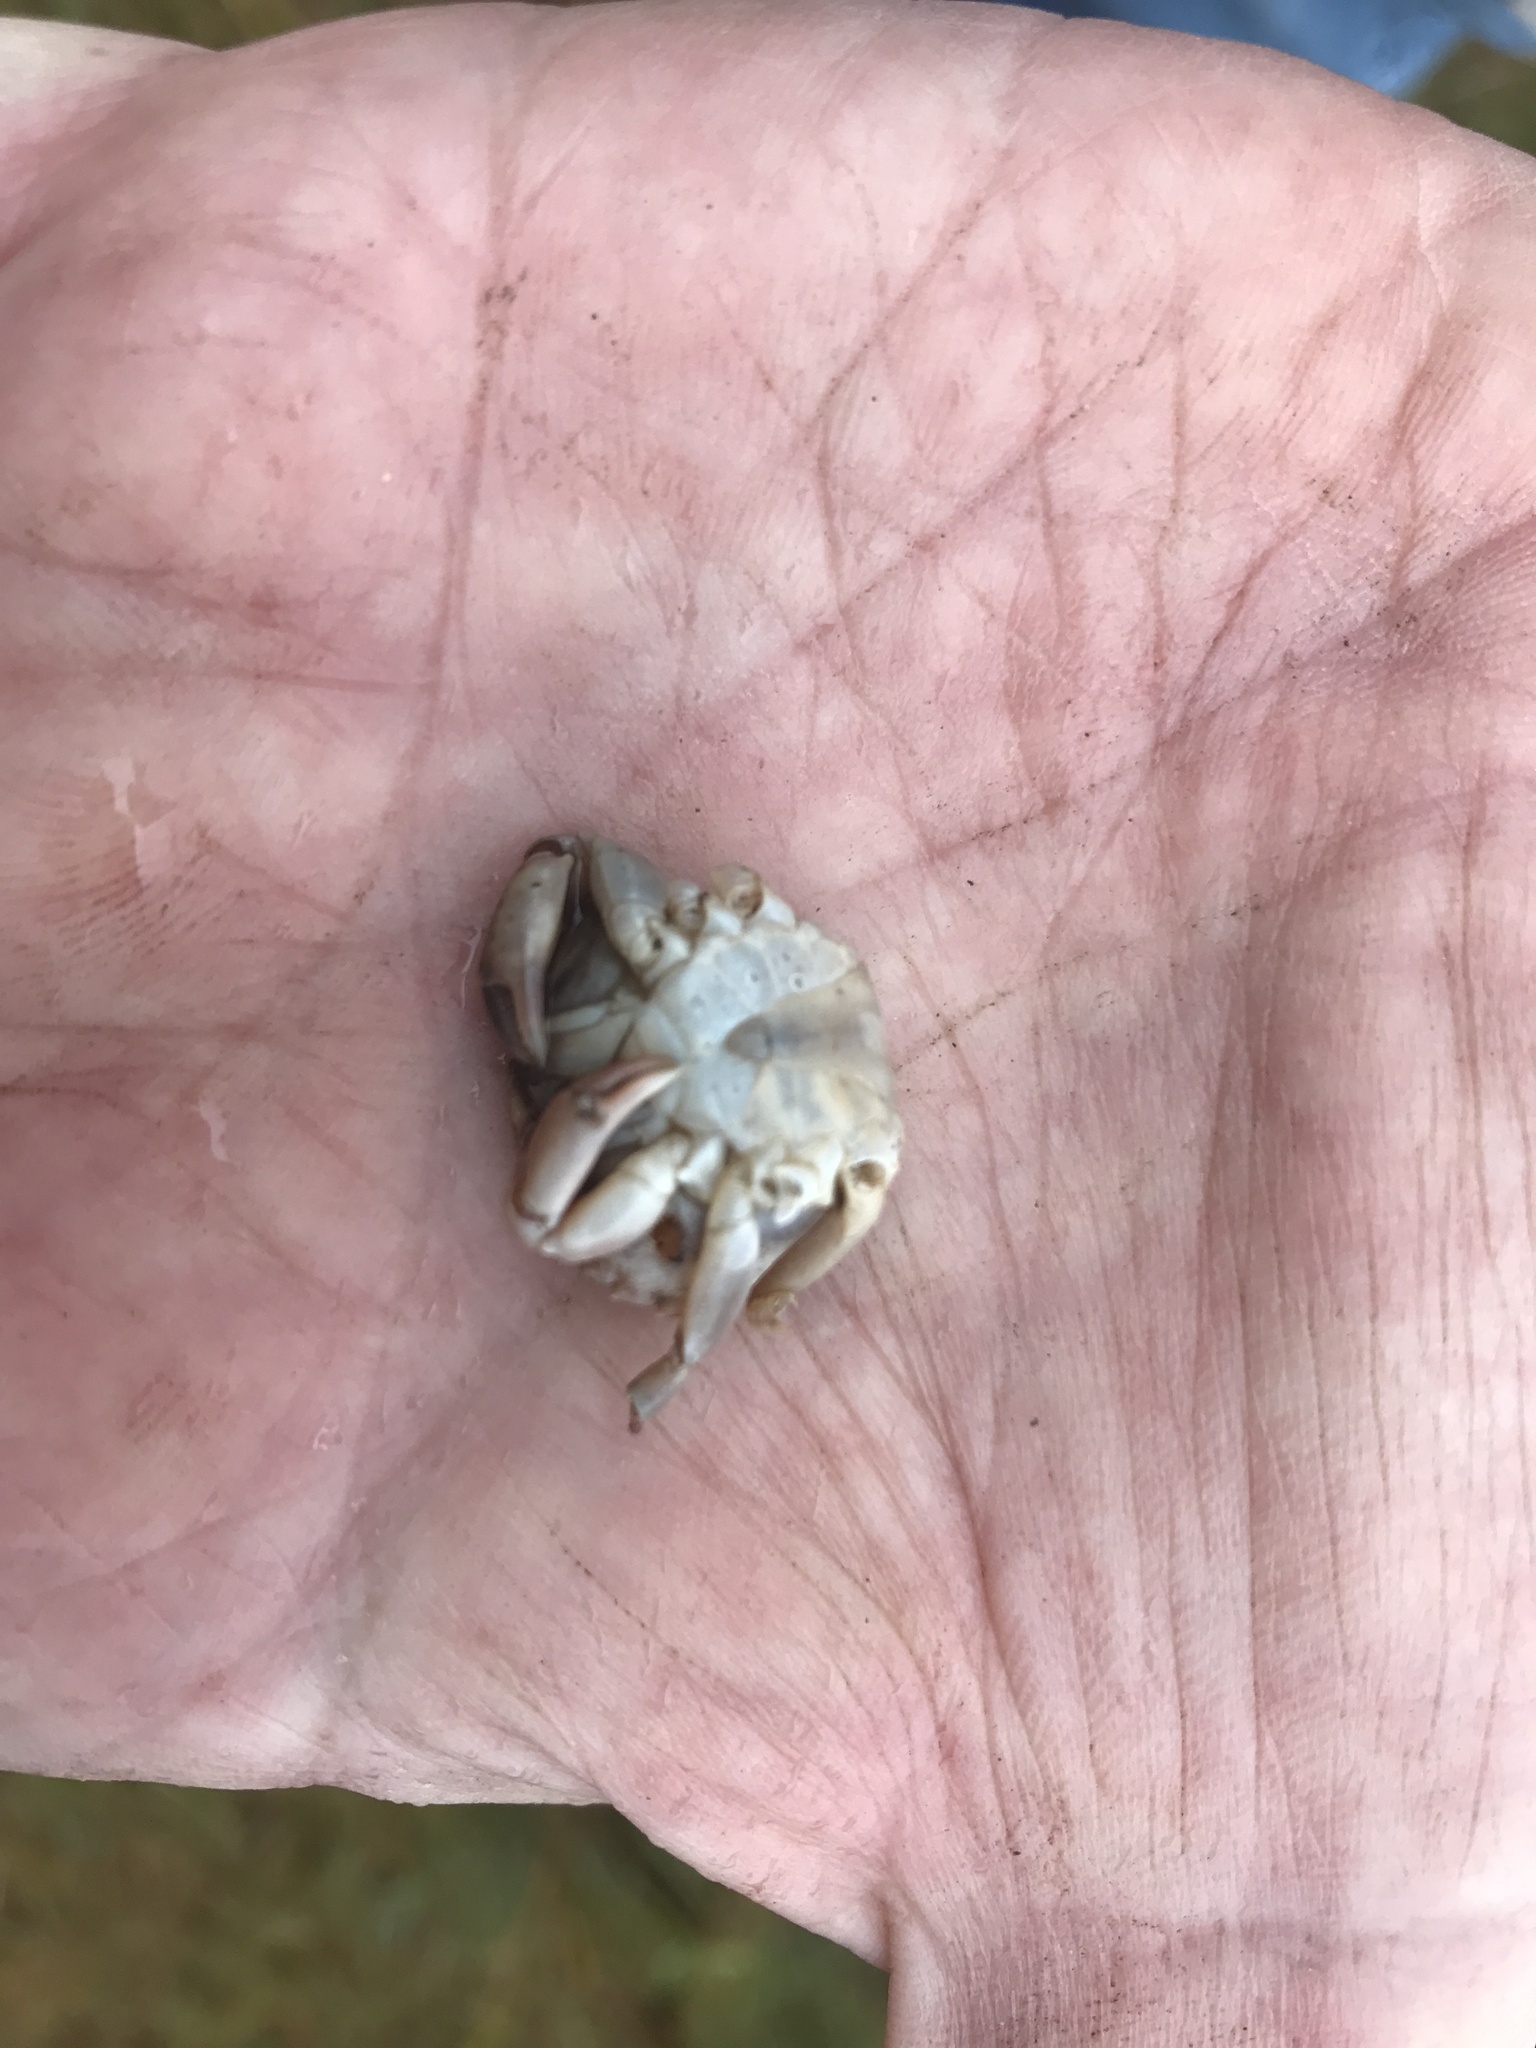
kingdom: Animalia
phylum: Arthropoda
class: Malacostraca
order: Decapoda
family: Carcinidae
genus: Carcinus
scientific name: Carcinus maenas
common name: European green crab
